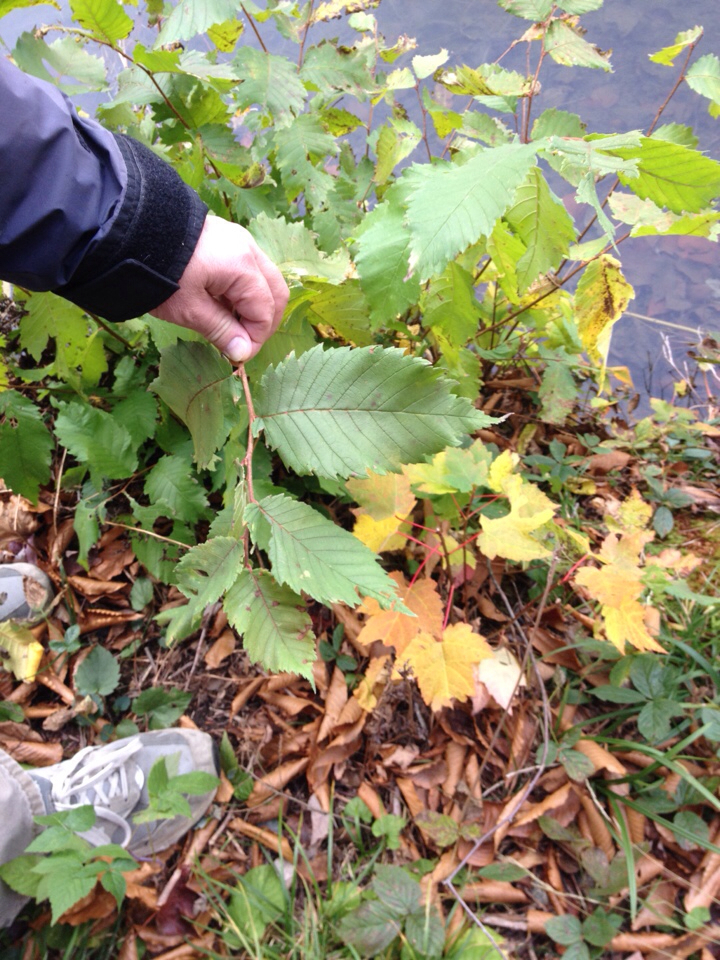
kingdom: Plantae
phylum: Tracheophyta
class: Magnoliopsida
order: Rosales
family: Ulmaceae
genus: Ulmus
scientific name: Ulmus americana
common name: American elm
